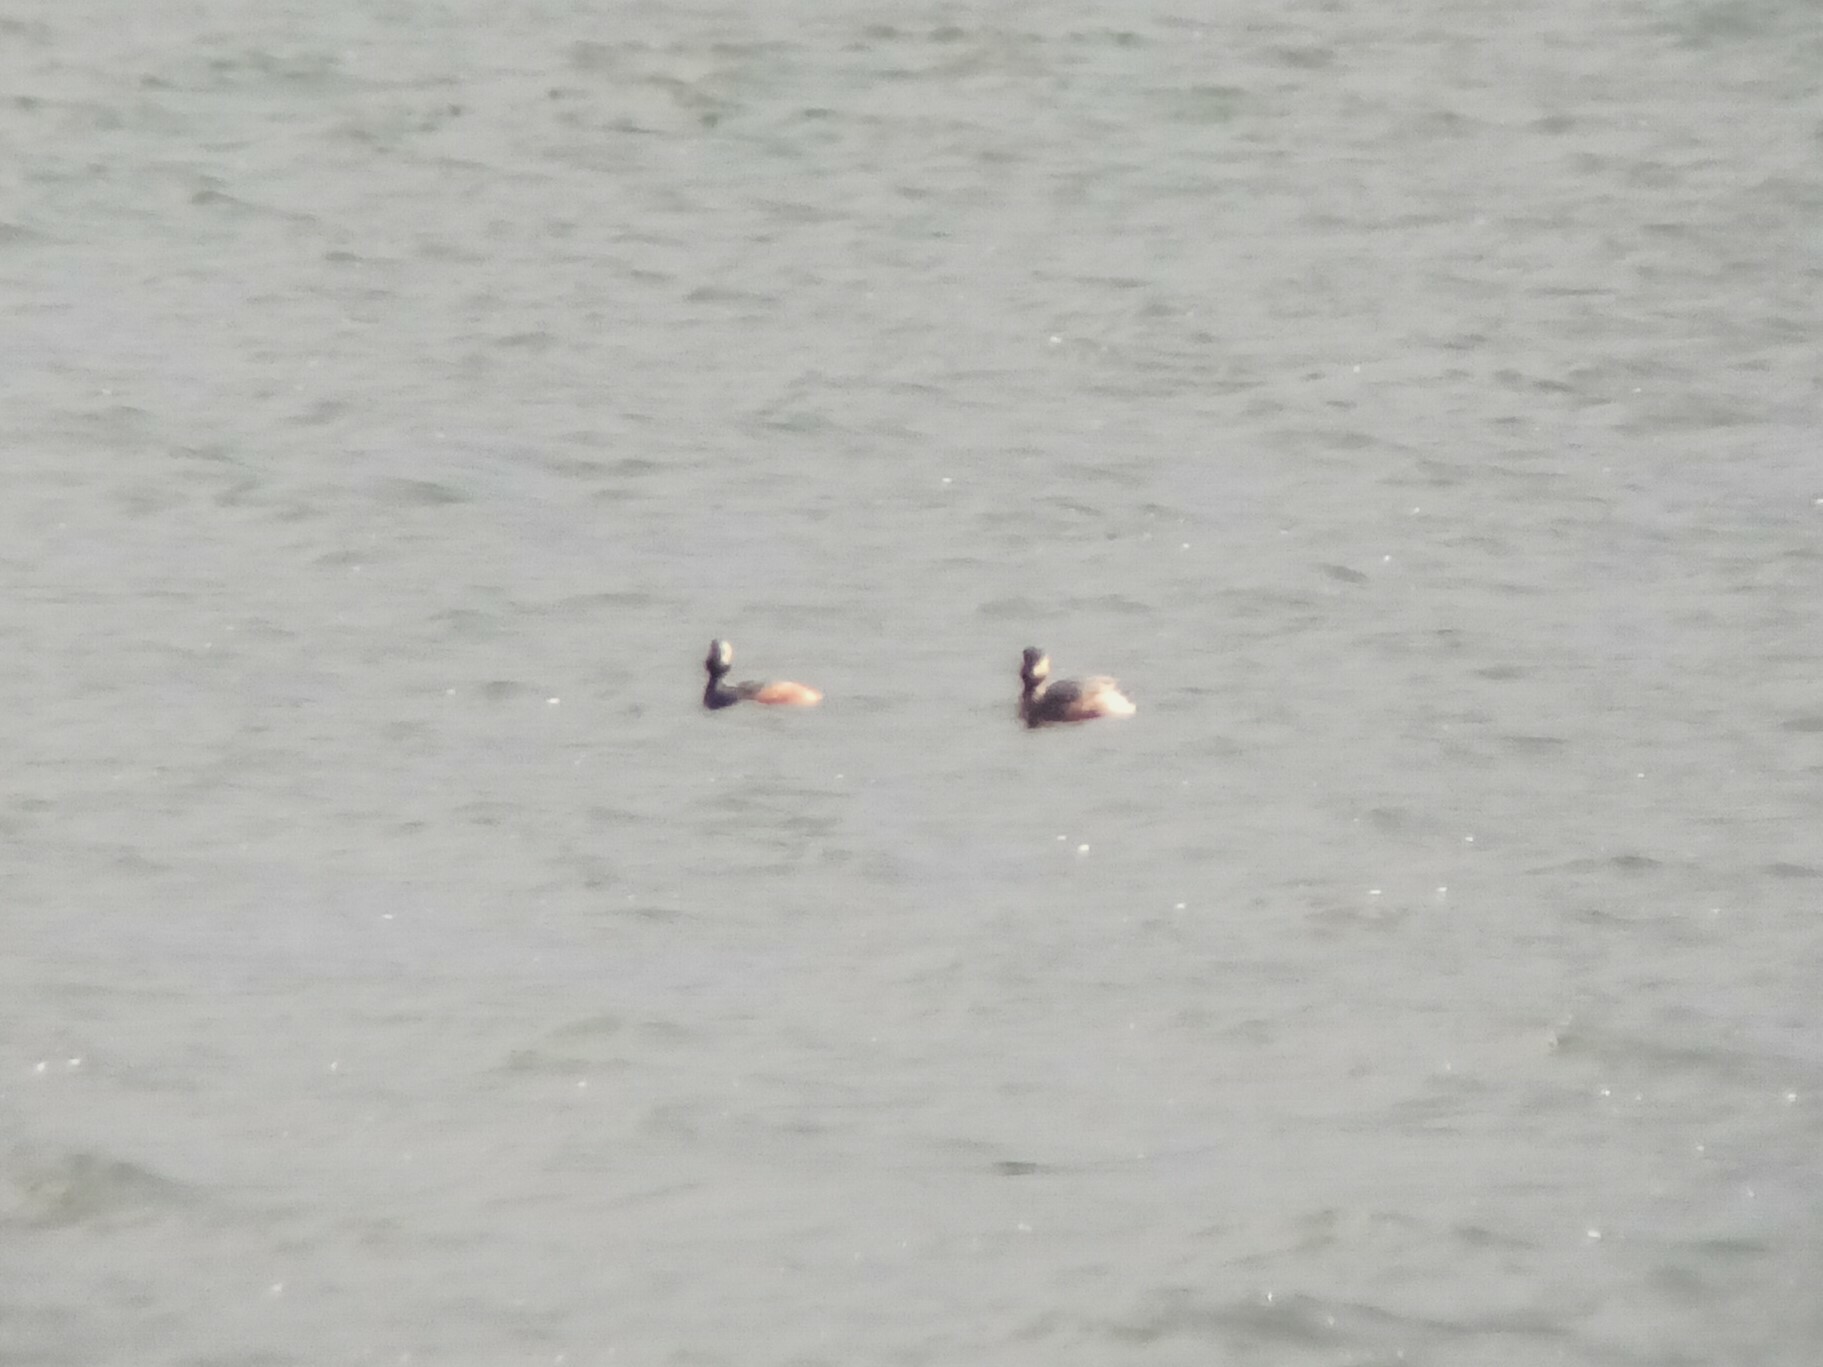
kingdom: Animalia
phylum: Chordata
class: Aves
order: Podicipediformes
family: Podicipedidae
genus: Podiceps
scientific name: Podiceps nigricollis
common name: Black-necked grebe
